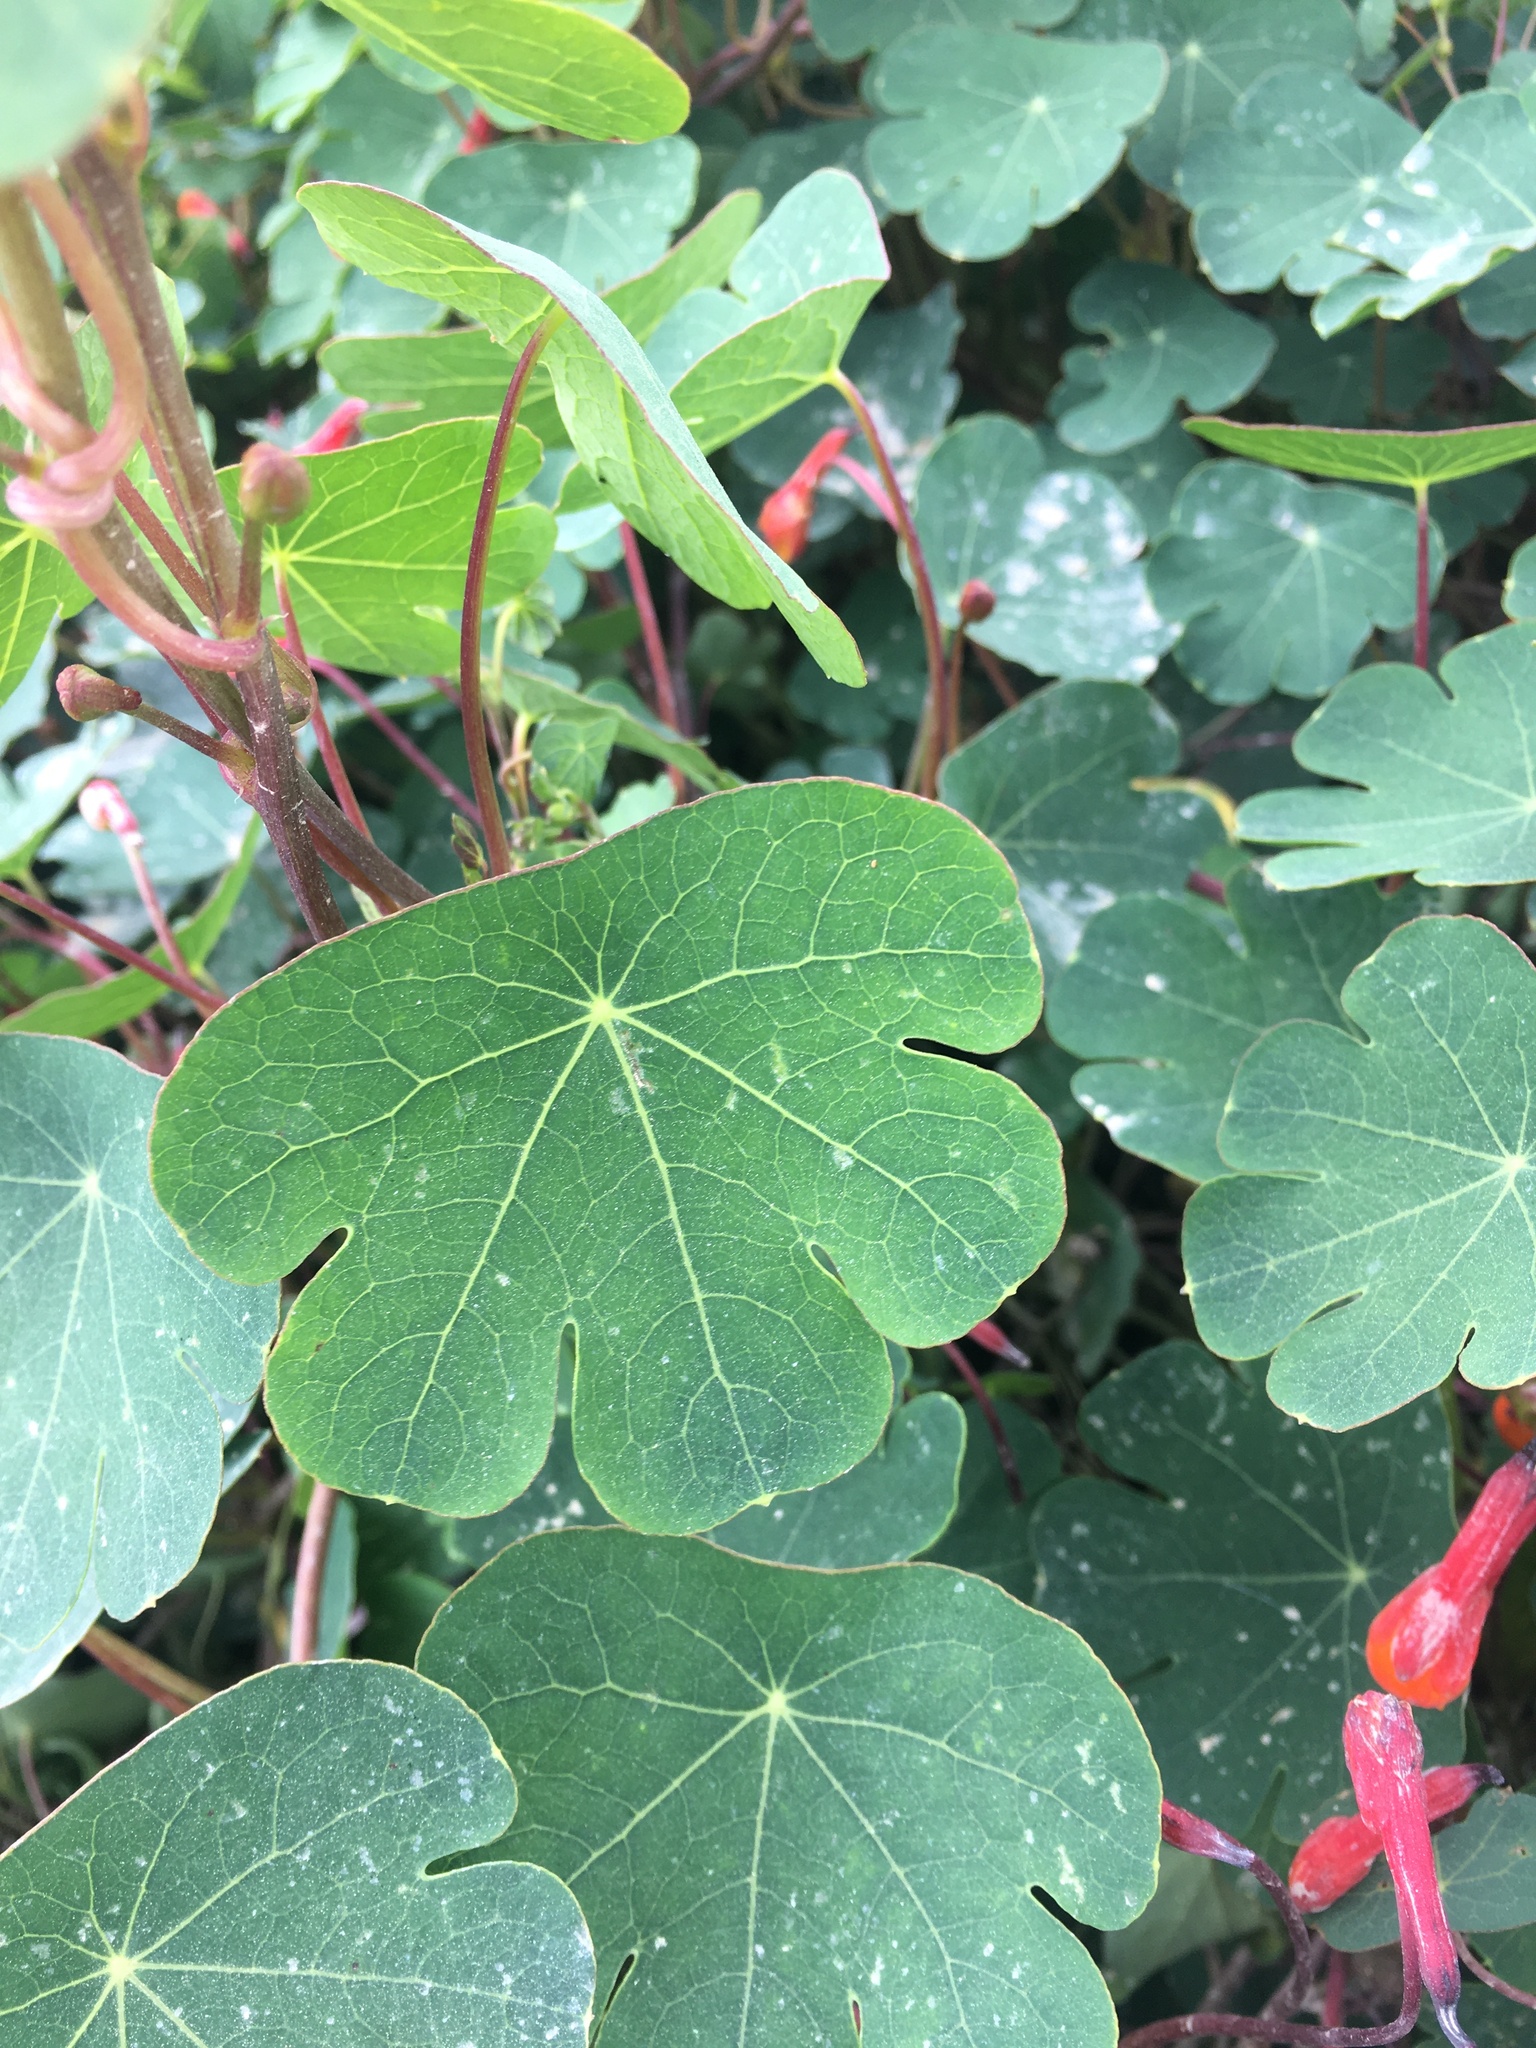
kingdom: Plantae
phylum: Tracheophyta
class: Magnoliopsida
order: Brassicales
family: Tropaeolaceae
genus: Tropaeolum
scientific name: Tropaeolum tuberosum
